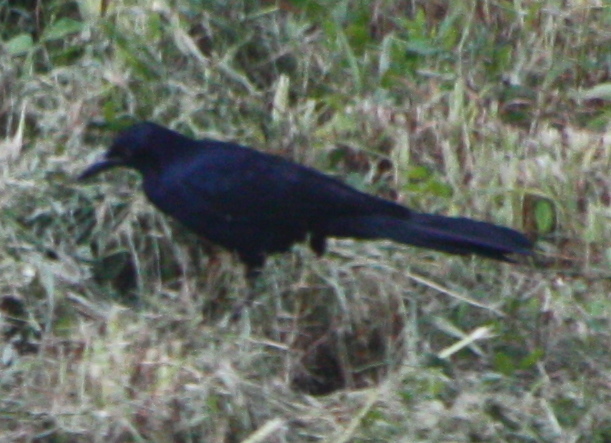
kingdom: Animalia
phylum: Chordata
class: Aves
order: Passeriformes
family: Icteridae
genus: Quiscalus
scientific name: Quiscalus mexicanus
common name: Great-tailed grackle
